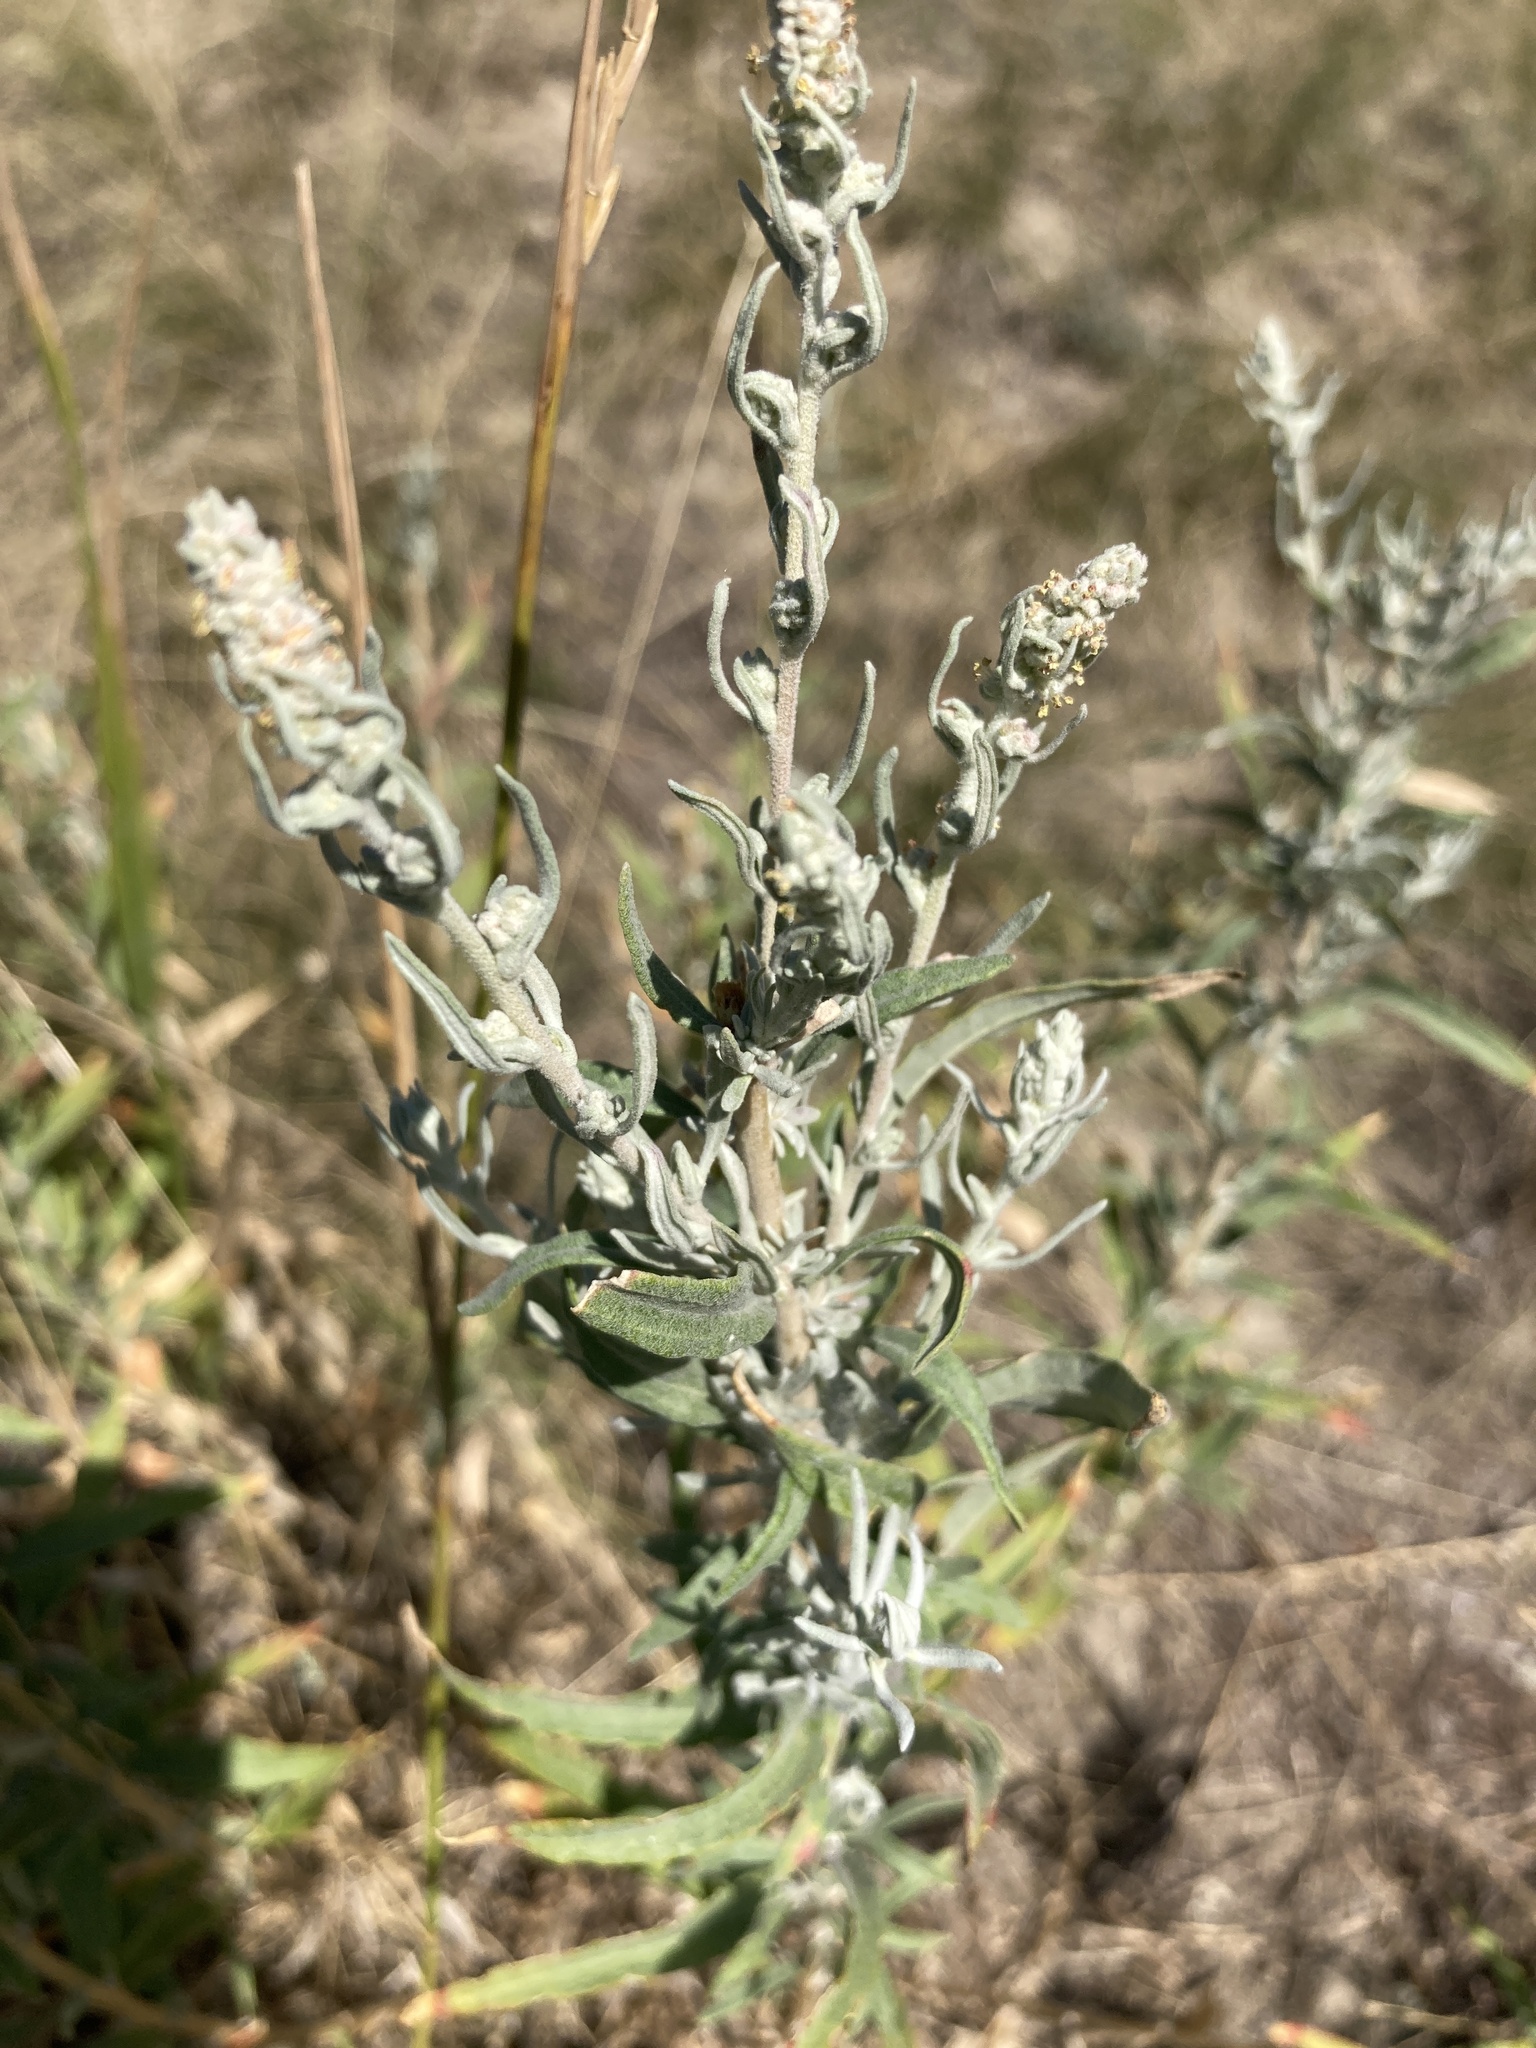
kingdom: Plantae
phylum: Tracheophyta
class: Magnoliopsida
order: Caryophyllales
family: Amaranthaceae
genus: Krascheninnikovia
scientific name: Krascheninnikovia ceratoides
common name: Pamirian winterfat
